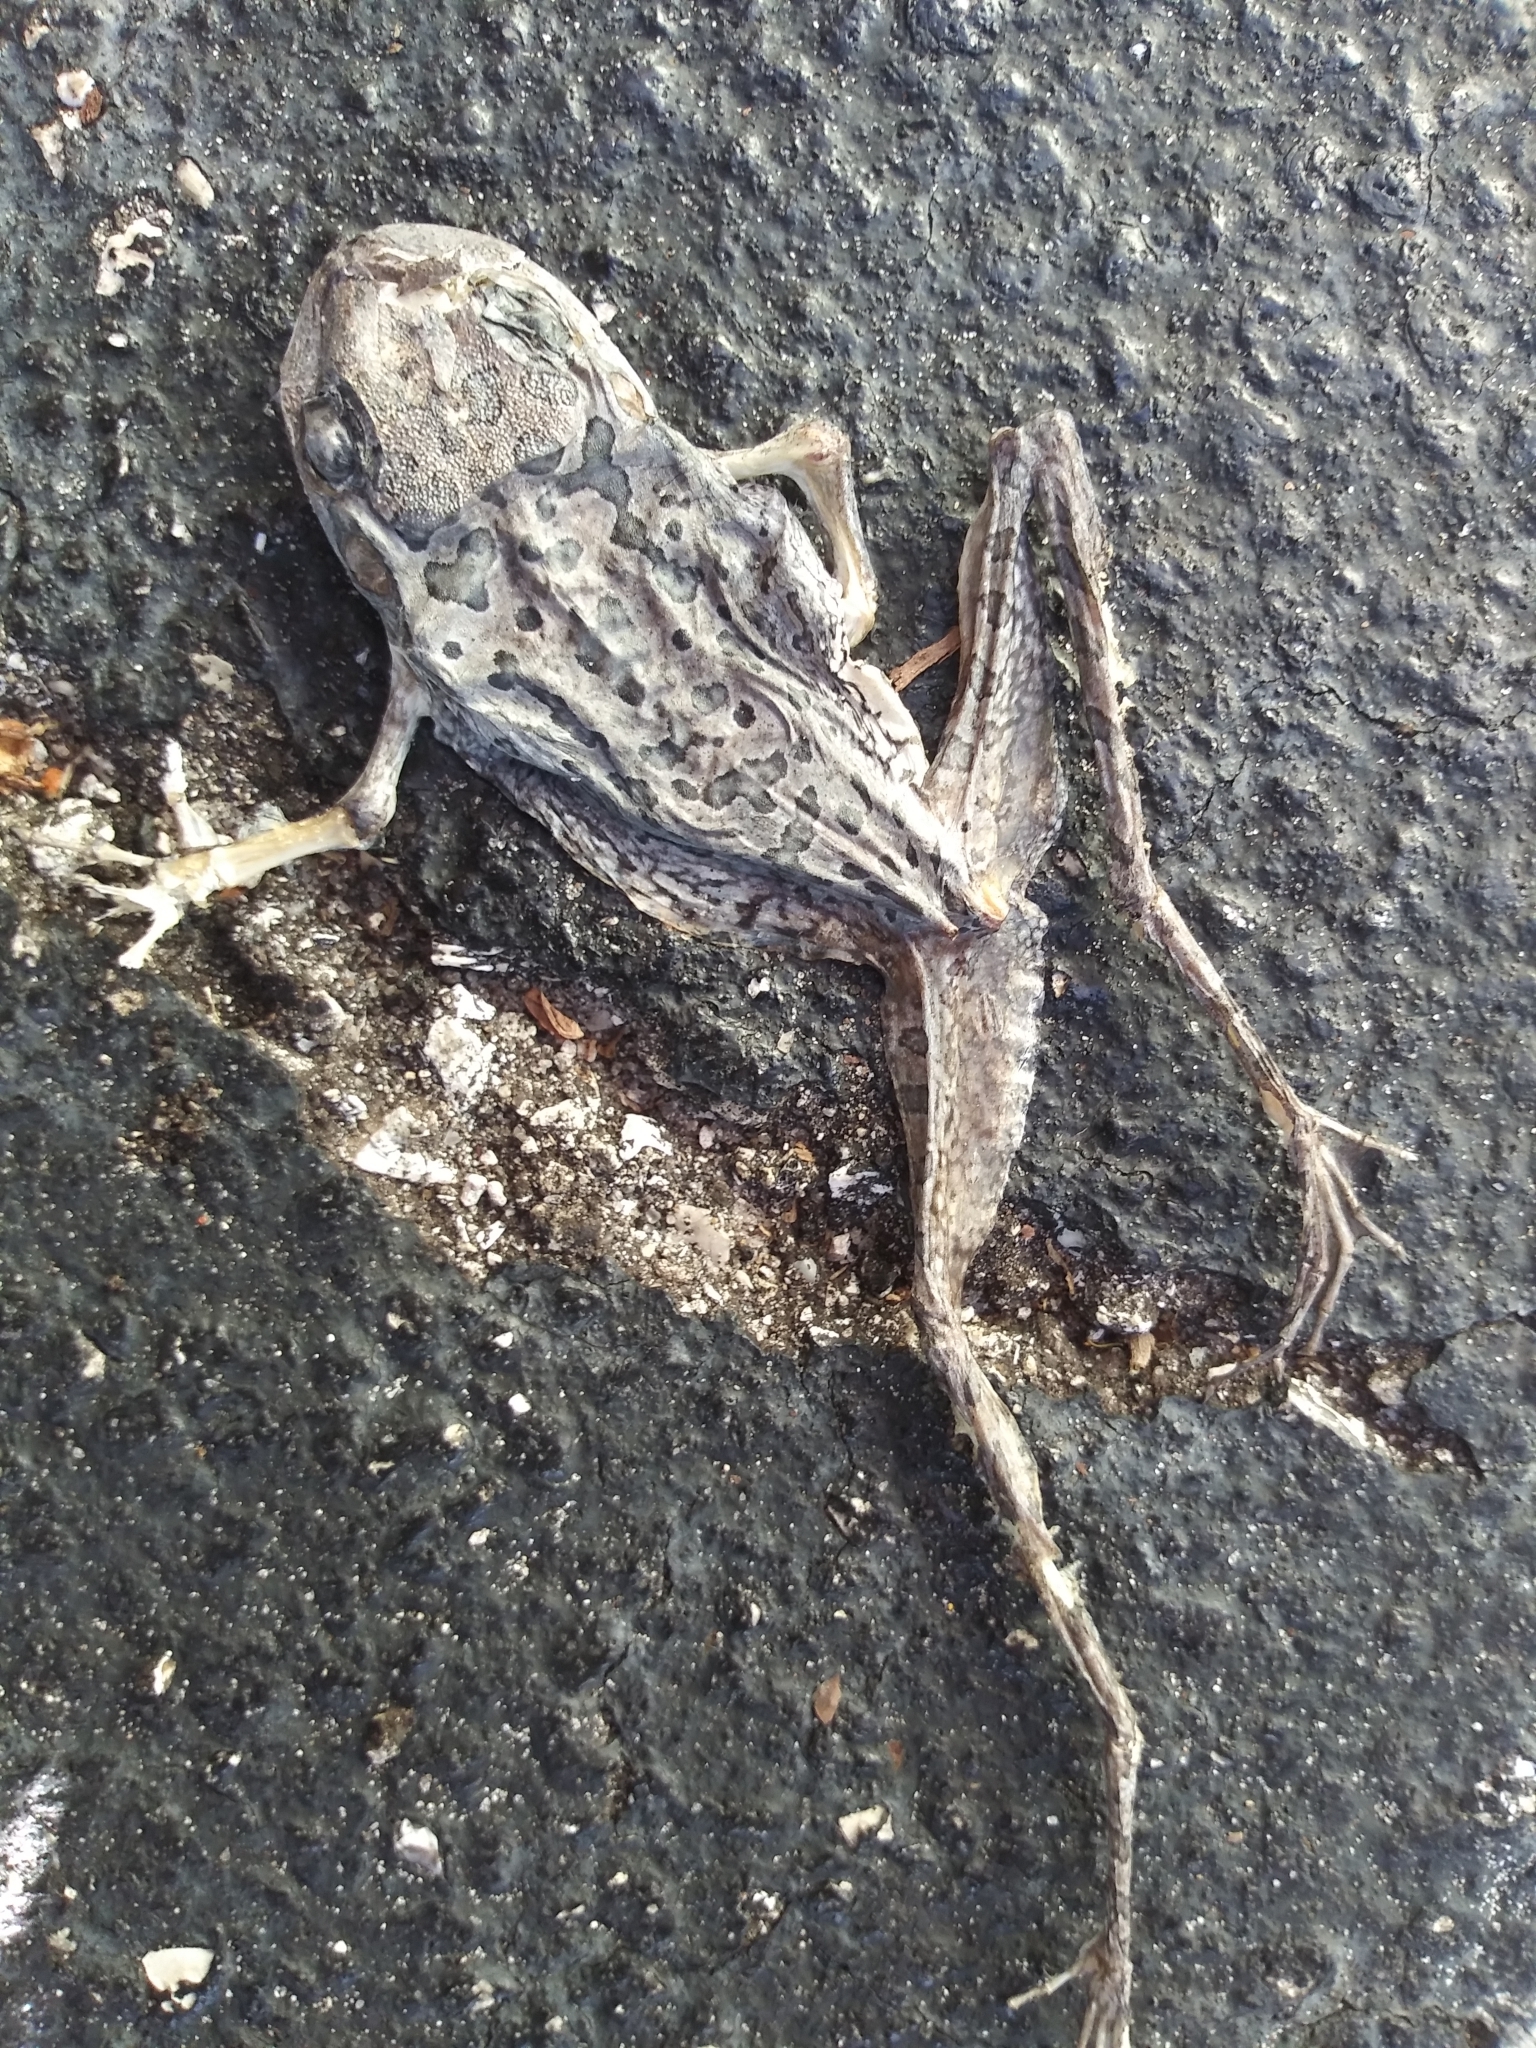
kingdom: Animalia
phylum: Chordata
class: Amphibia
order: Anura
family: Hylidae
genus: Osteopilus
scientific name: Osteopilus septentrionalis
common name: Cuban treefrog
